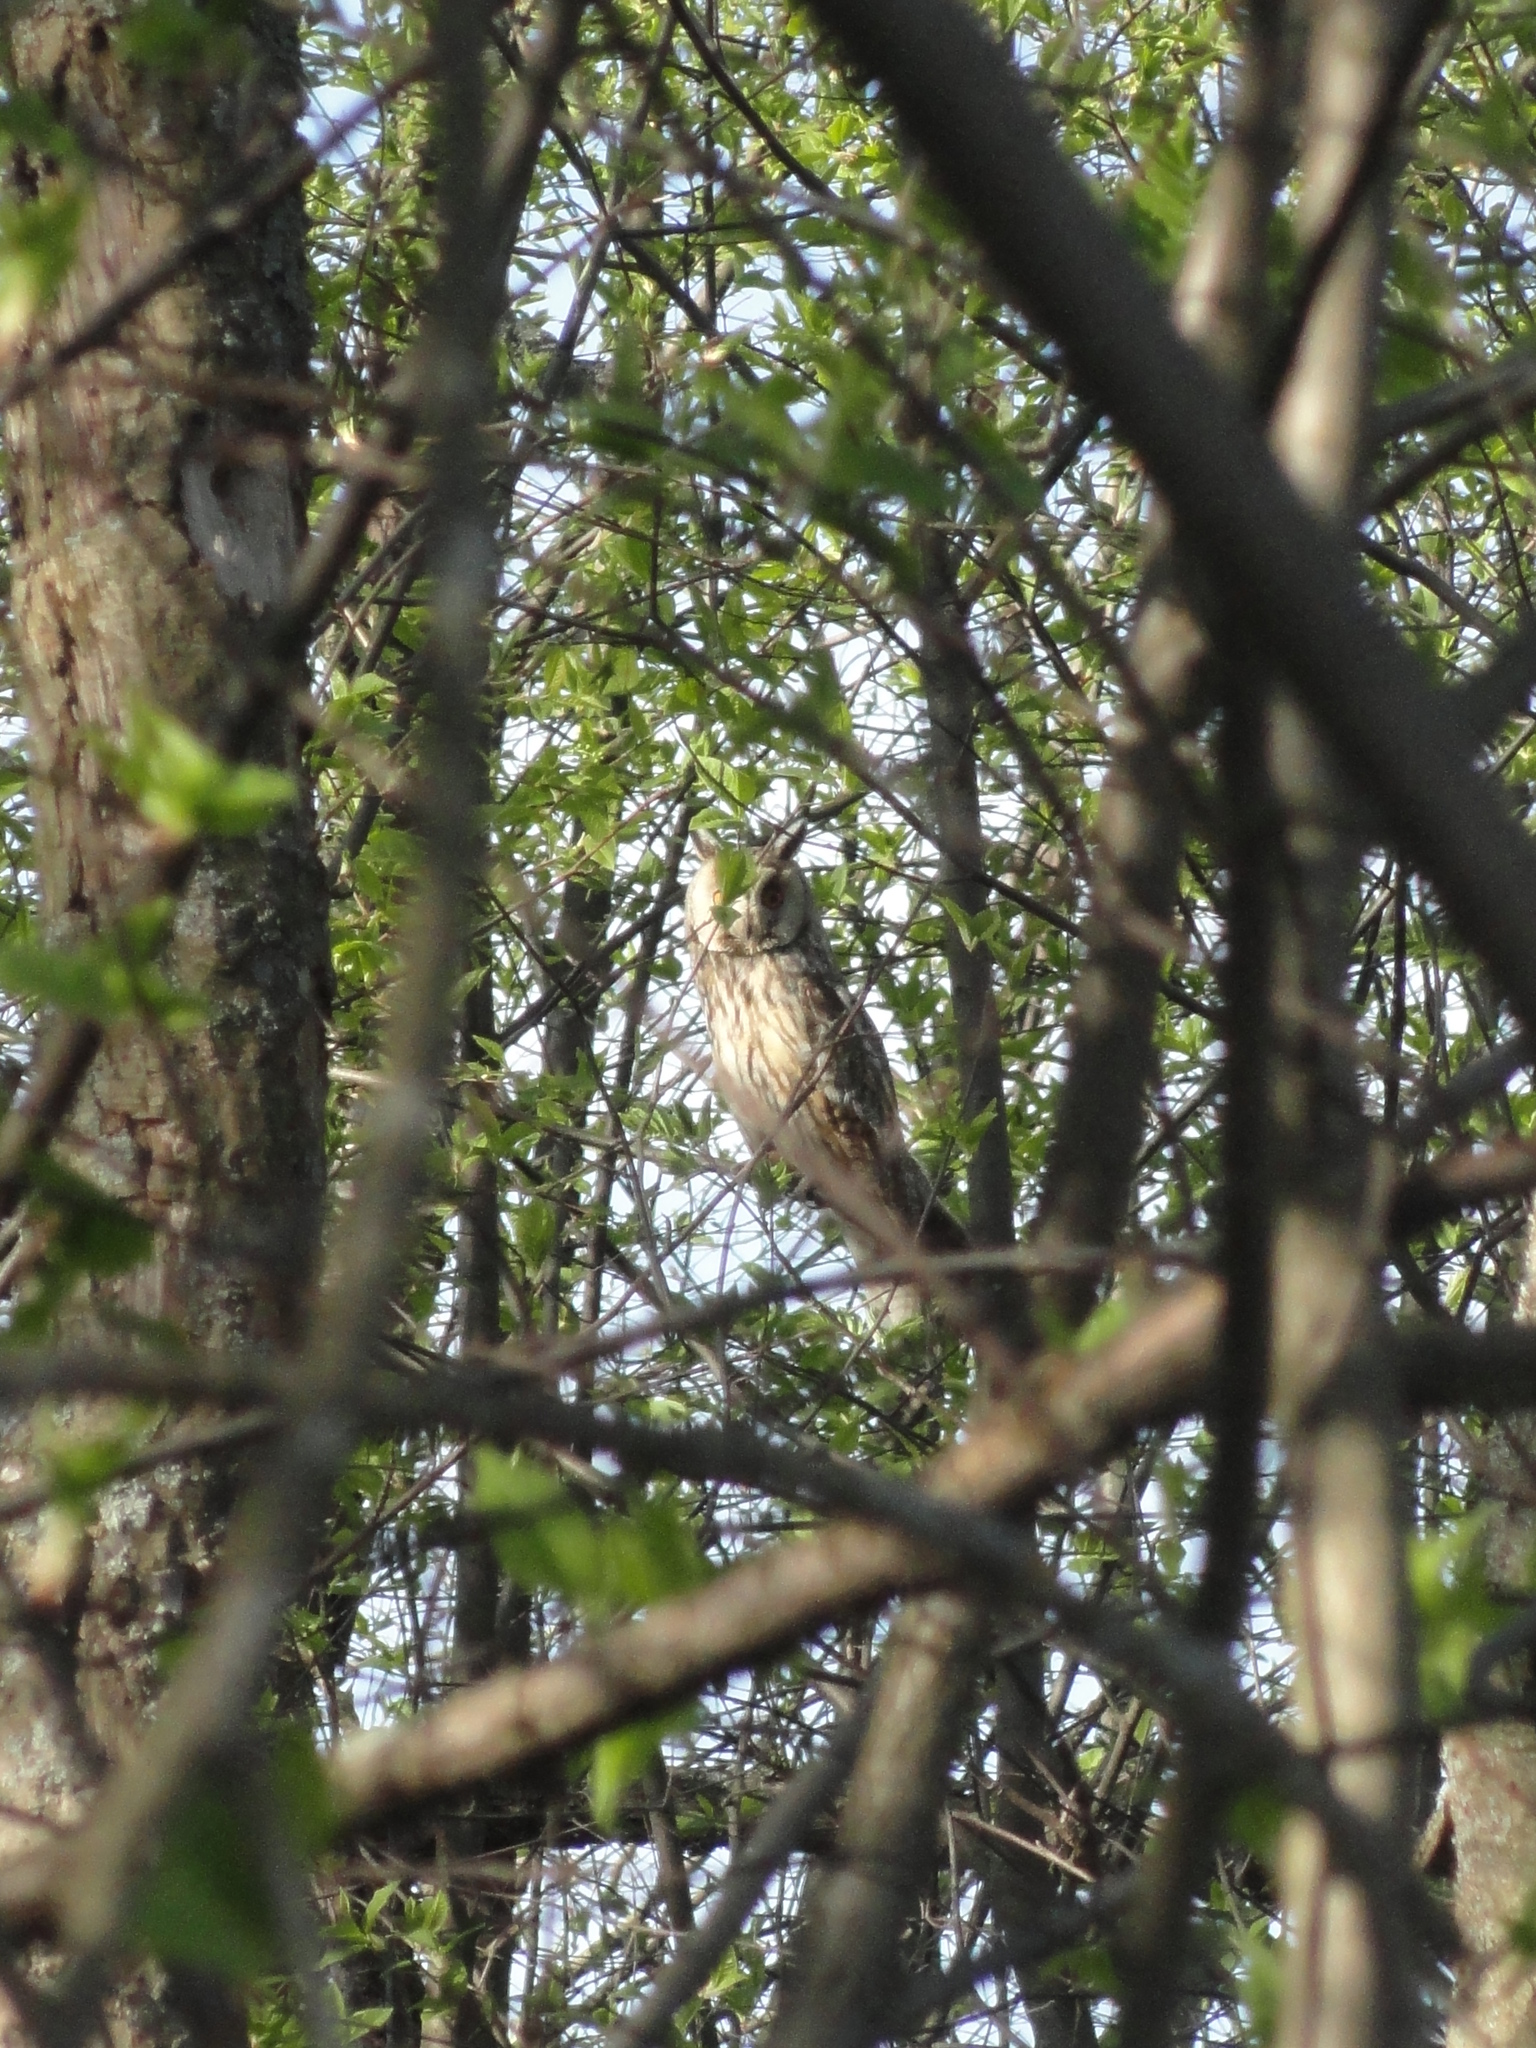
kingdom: Animalia
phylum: Chordata
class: Aves
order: Strigiformes
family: Strigidae
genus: Asio
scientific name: Asio otus
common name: Long-eared owl
